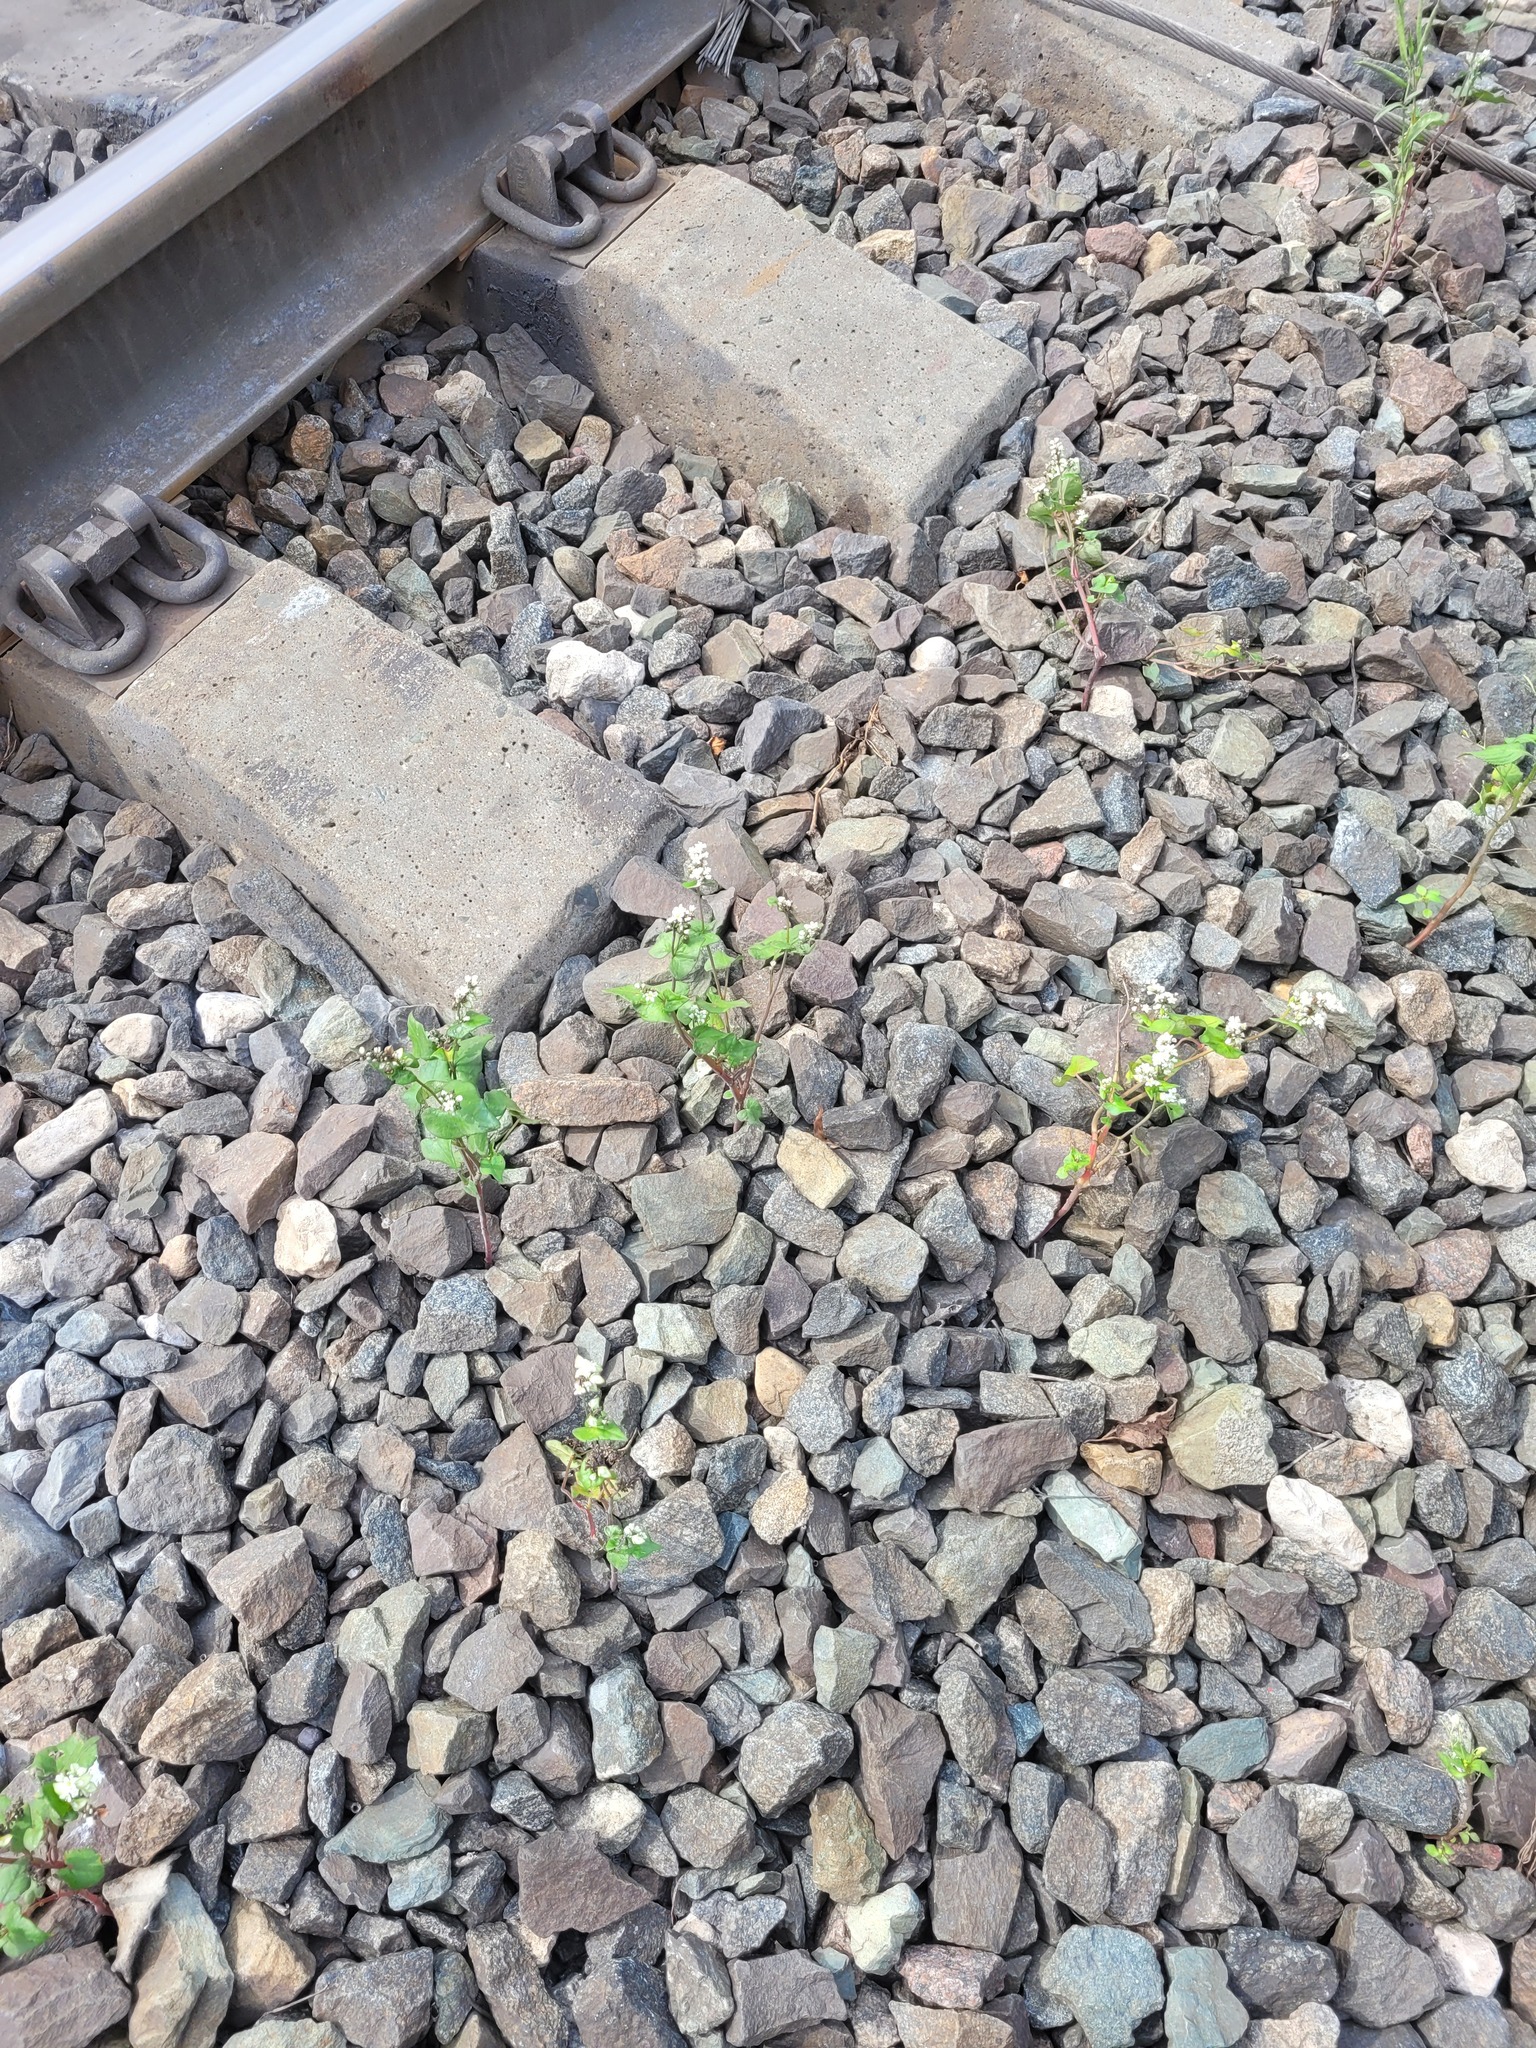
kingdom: Plantae
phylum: Tracheophyta
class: Magnoliopsida
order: Caryophyllales
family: Polygonaceae
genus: Fagopyrum
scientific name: Fagopyrum esculentum
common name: Buckwheat
